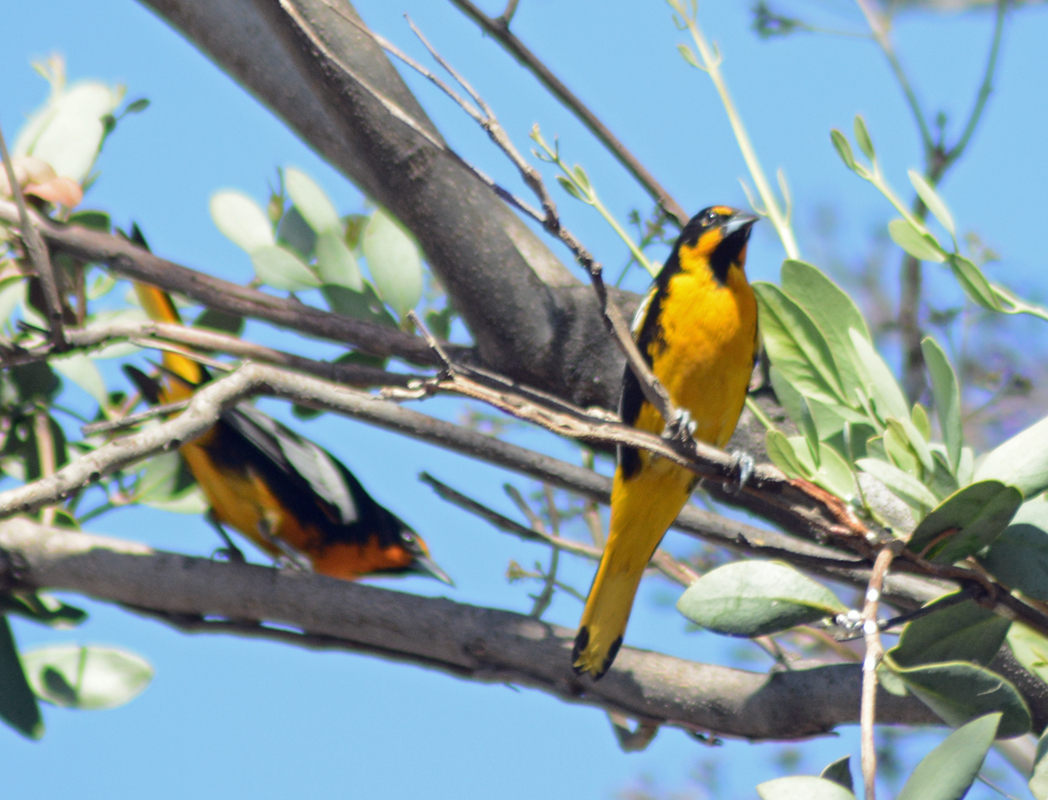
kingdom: Animalia
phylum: Chordata
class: Aves
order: Passeriformes
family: Icteridae
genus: Icterus
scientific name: Icterus abeillei
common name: Black-backed oriole
